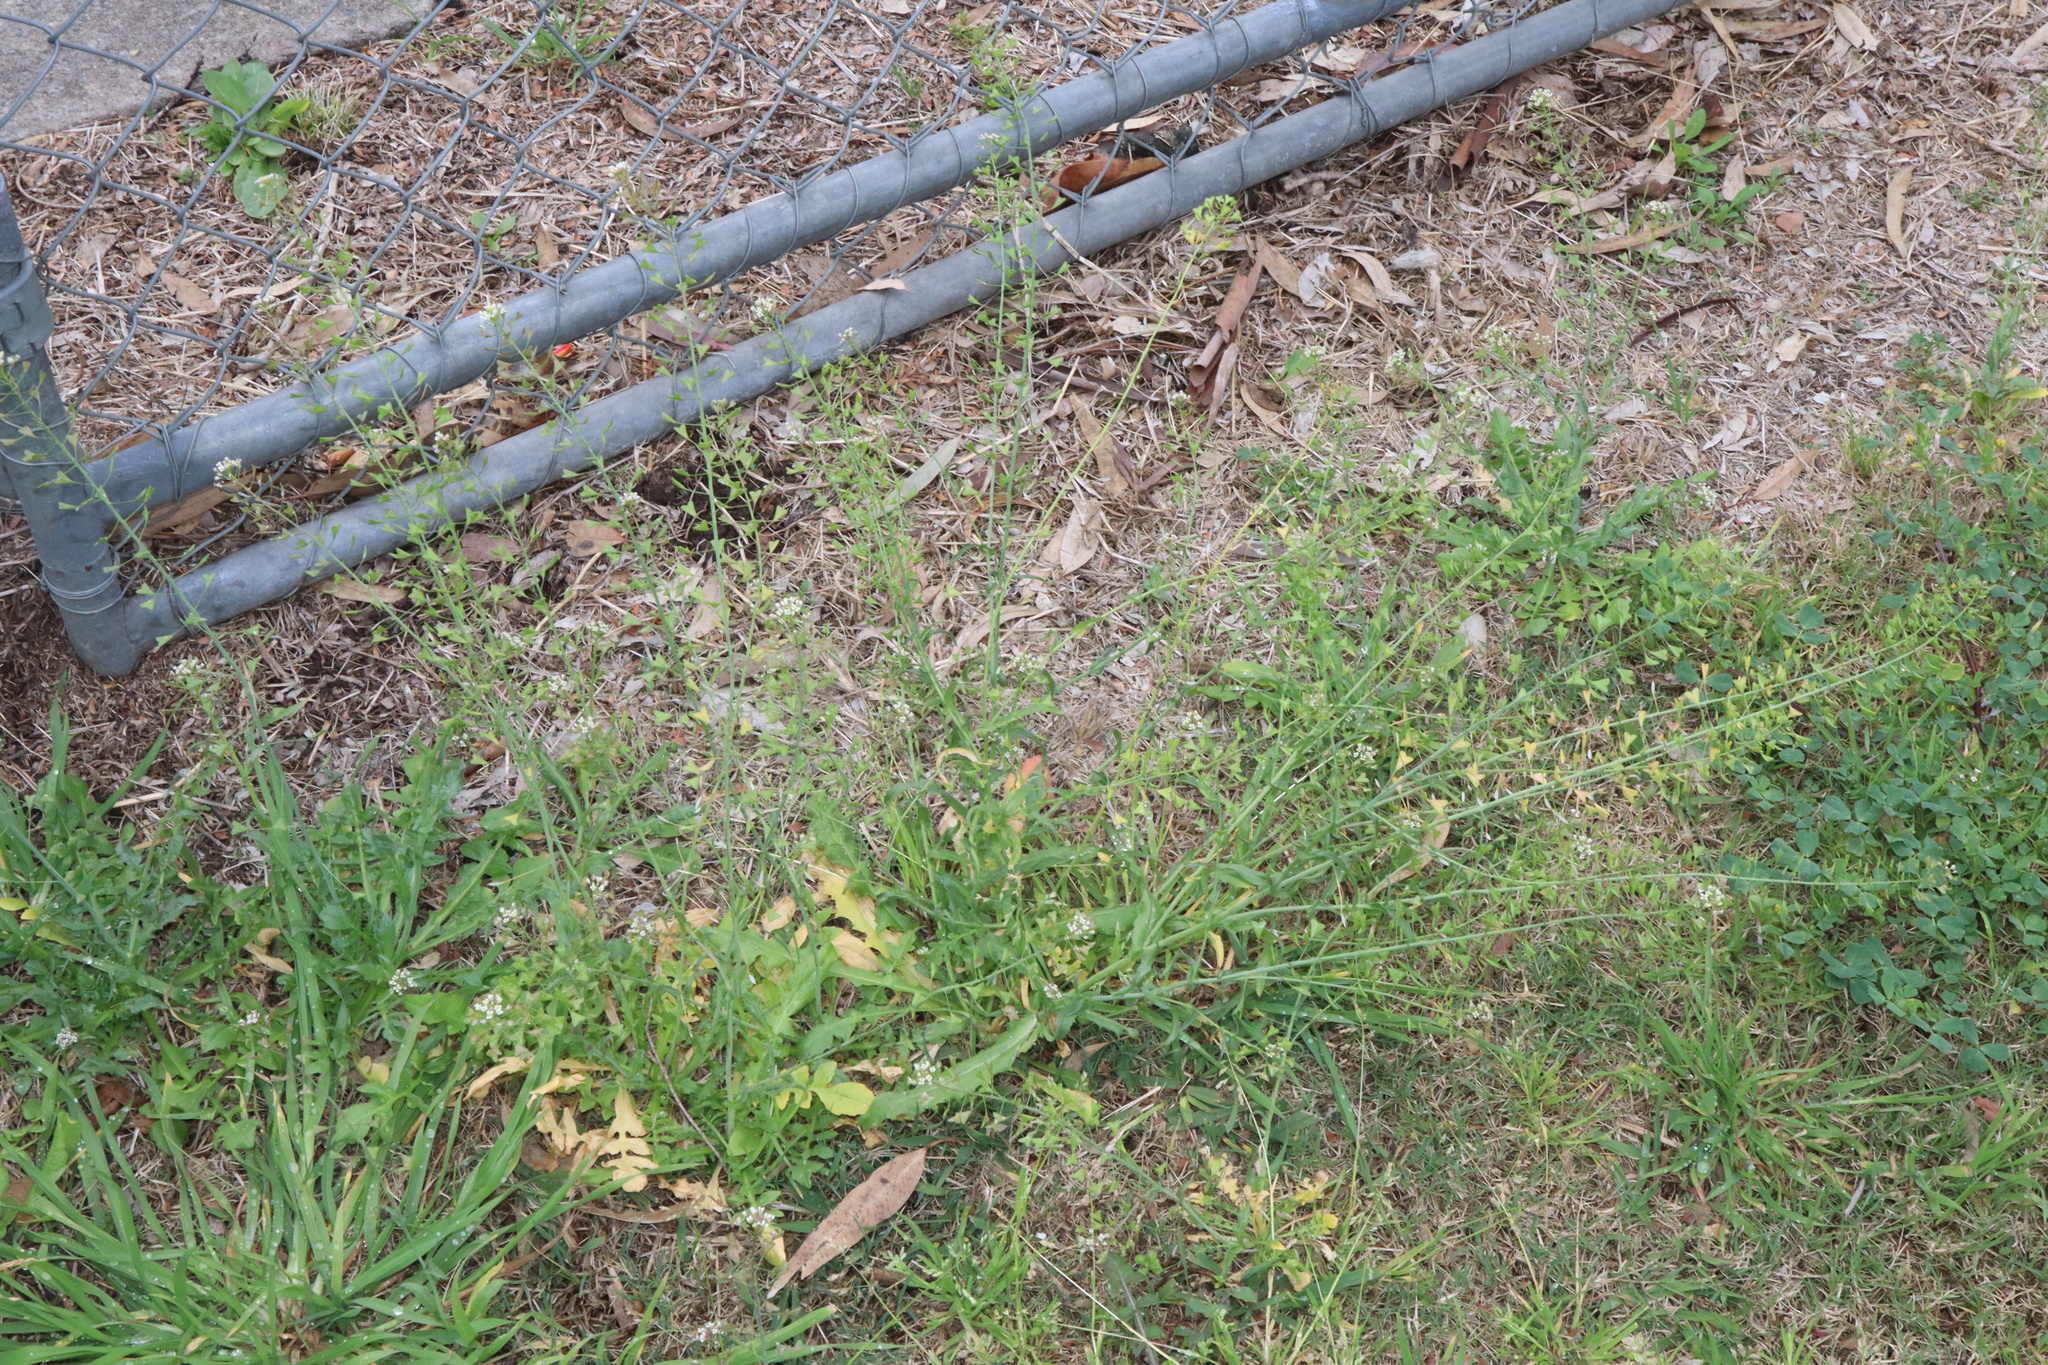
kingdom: Plantae
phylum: Tracheophyta
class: Magnoliopsida
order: Brassicales
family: Brassicaceae
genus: Capsella
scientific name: Capsella bursa-pastoris
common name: Shepherd's purse
